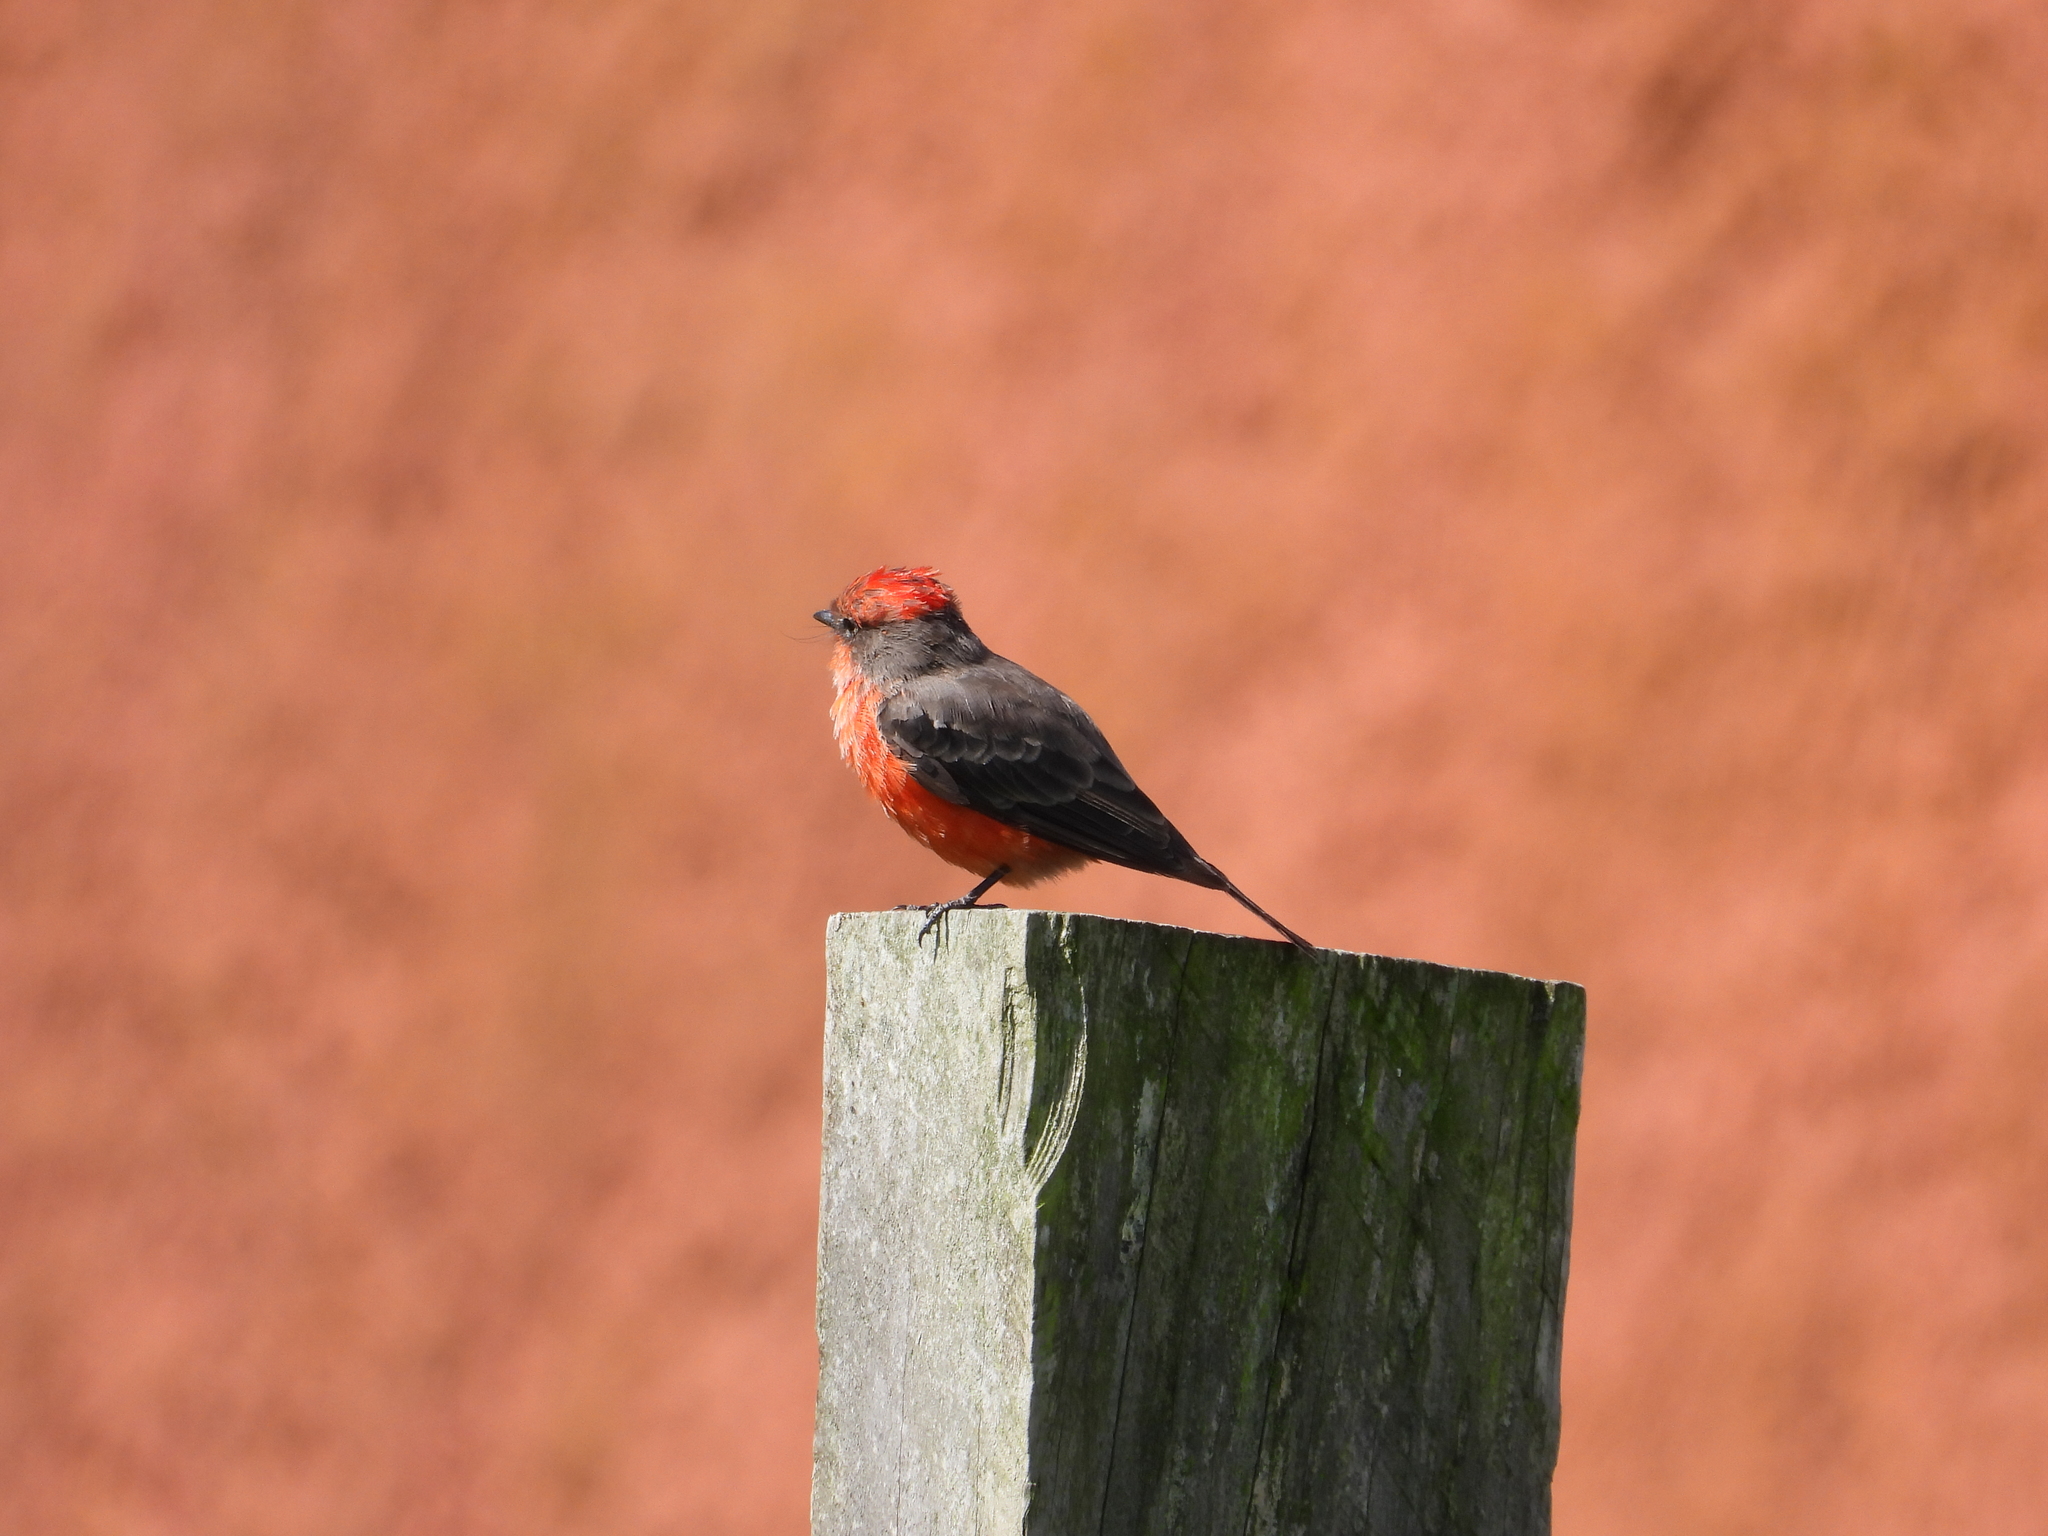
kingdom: Animalia
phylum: Chordata
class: Aves
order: Passeriformes
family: Tyrannidae
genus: Pyrocephalus
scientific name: Pyrocephalus rubinus
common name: Vermilion flycatcher
